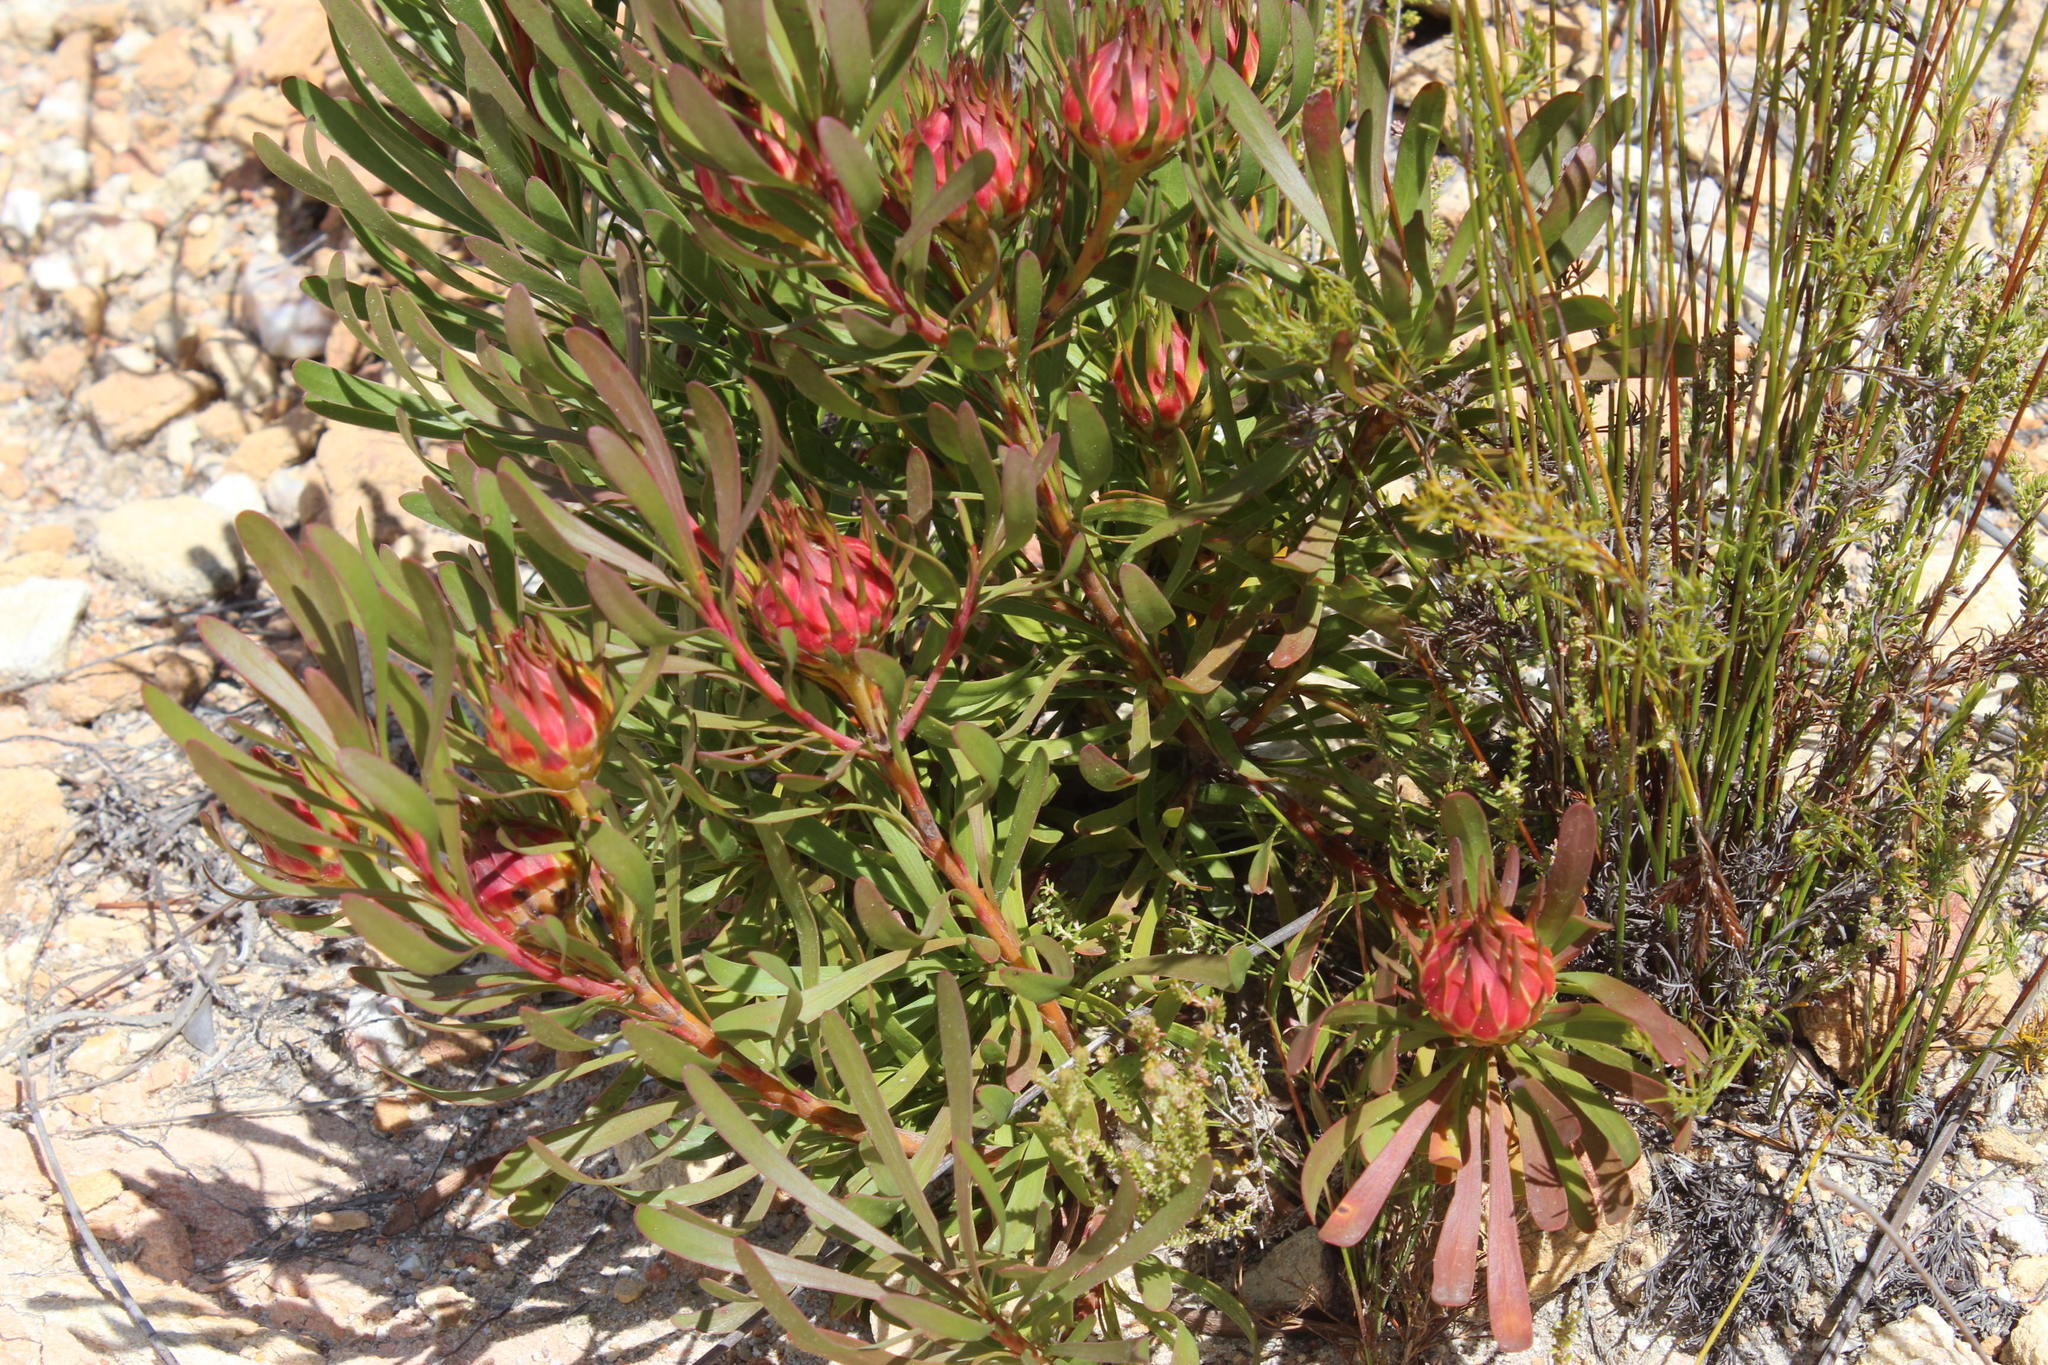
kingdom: Plantae
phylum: Tracheophyta
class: Magnoliopsida
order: Proteales
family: Proteaceae
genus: Aulax
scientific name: Aulax umbellata
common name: Broad-leaf featherbush
